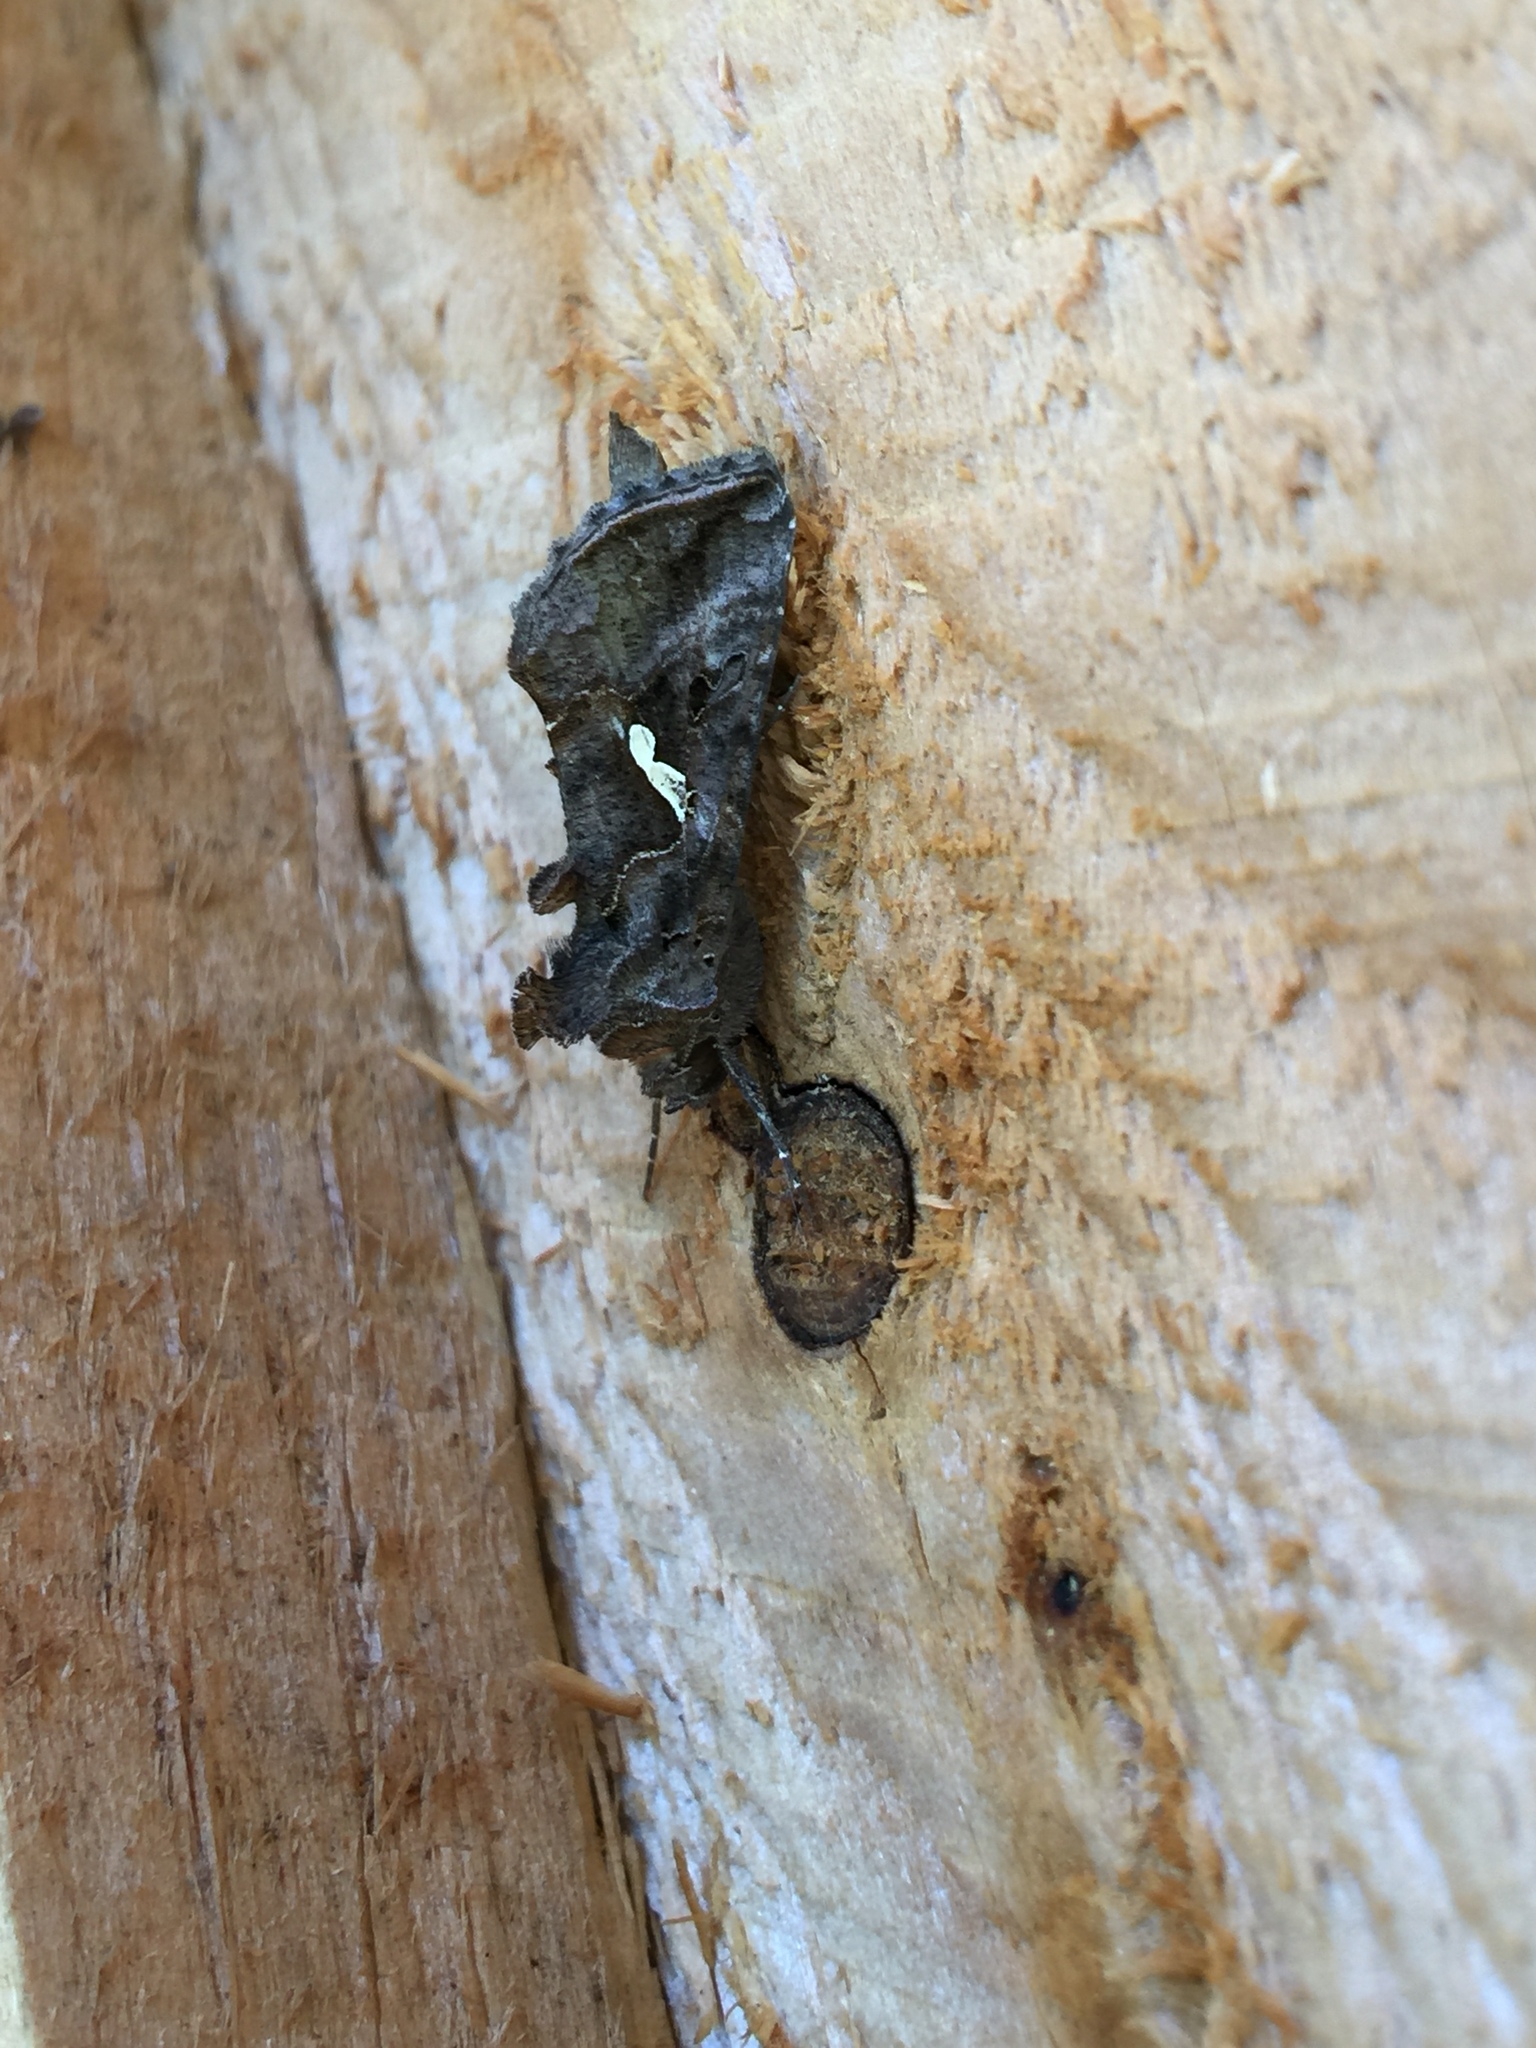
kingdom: Animalia
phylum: Arthropoda
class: Insecta
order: Lepidoptera
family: Noctuidae
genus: Autographa
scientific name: Autographa precationis
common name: Common looper moth
